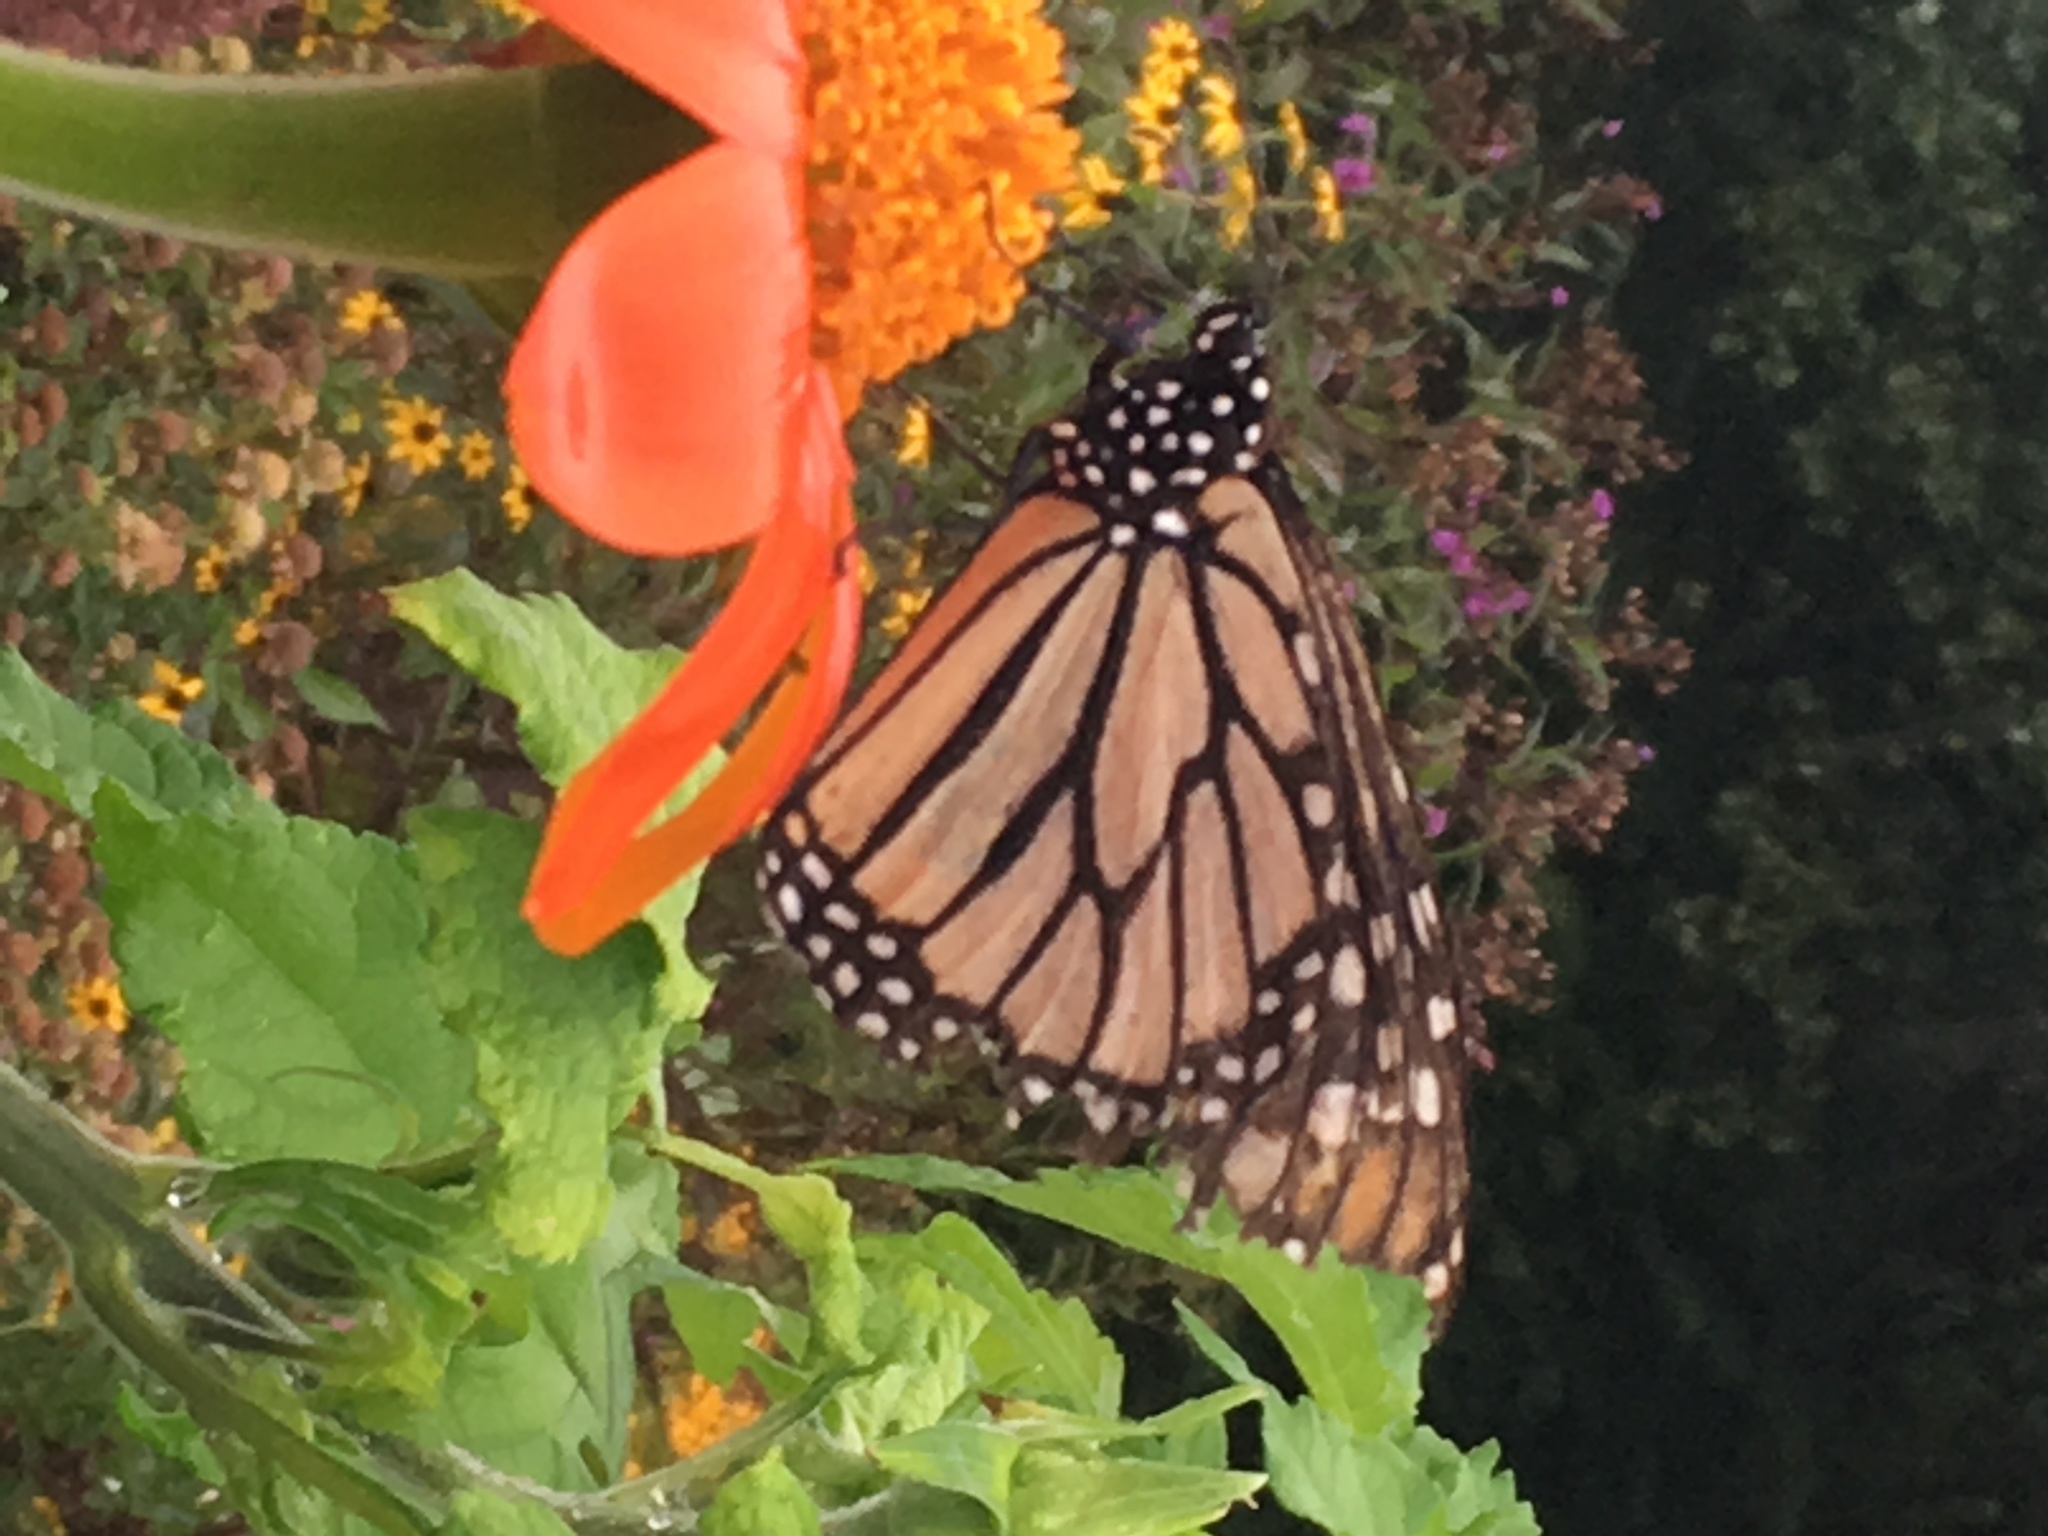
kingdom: Animalia
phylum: Arthropoda
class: Insecta
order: Lepidoptera
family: Nymphalidae
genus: Danaus
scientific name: Danaus plexippus
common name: Monarch
